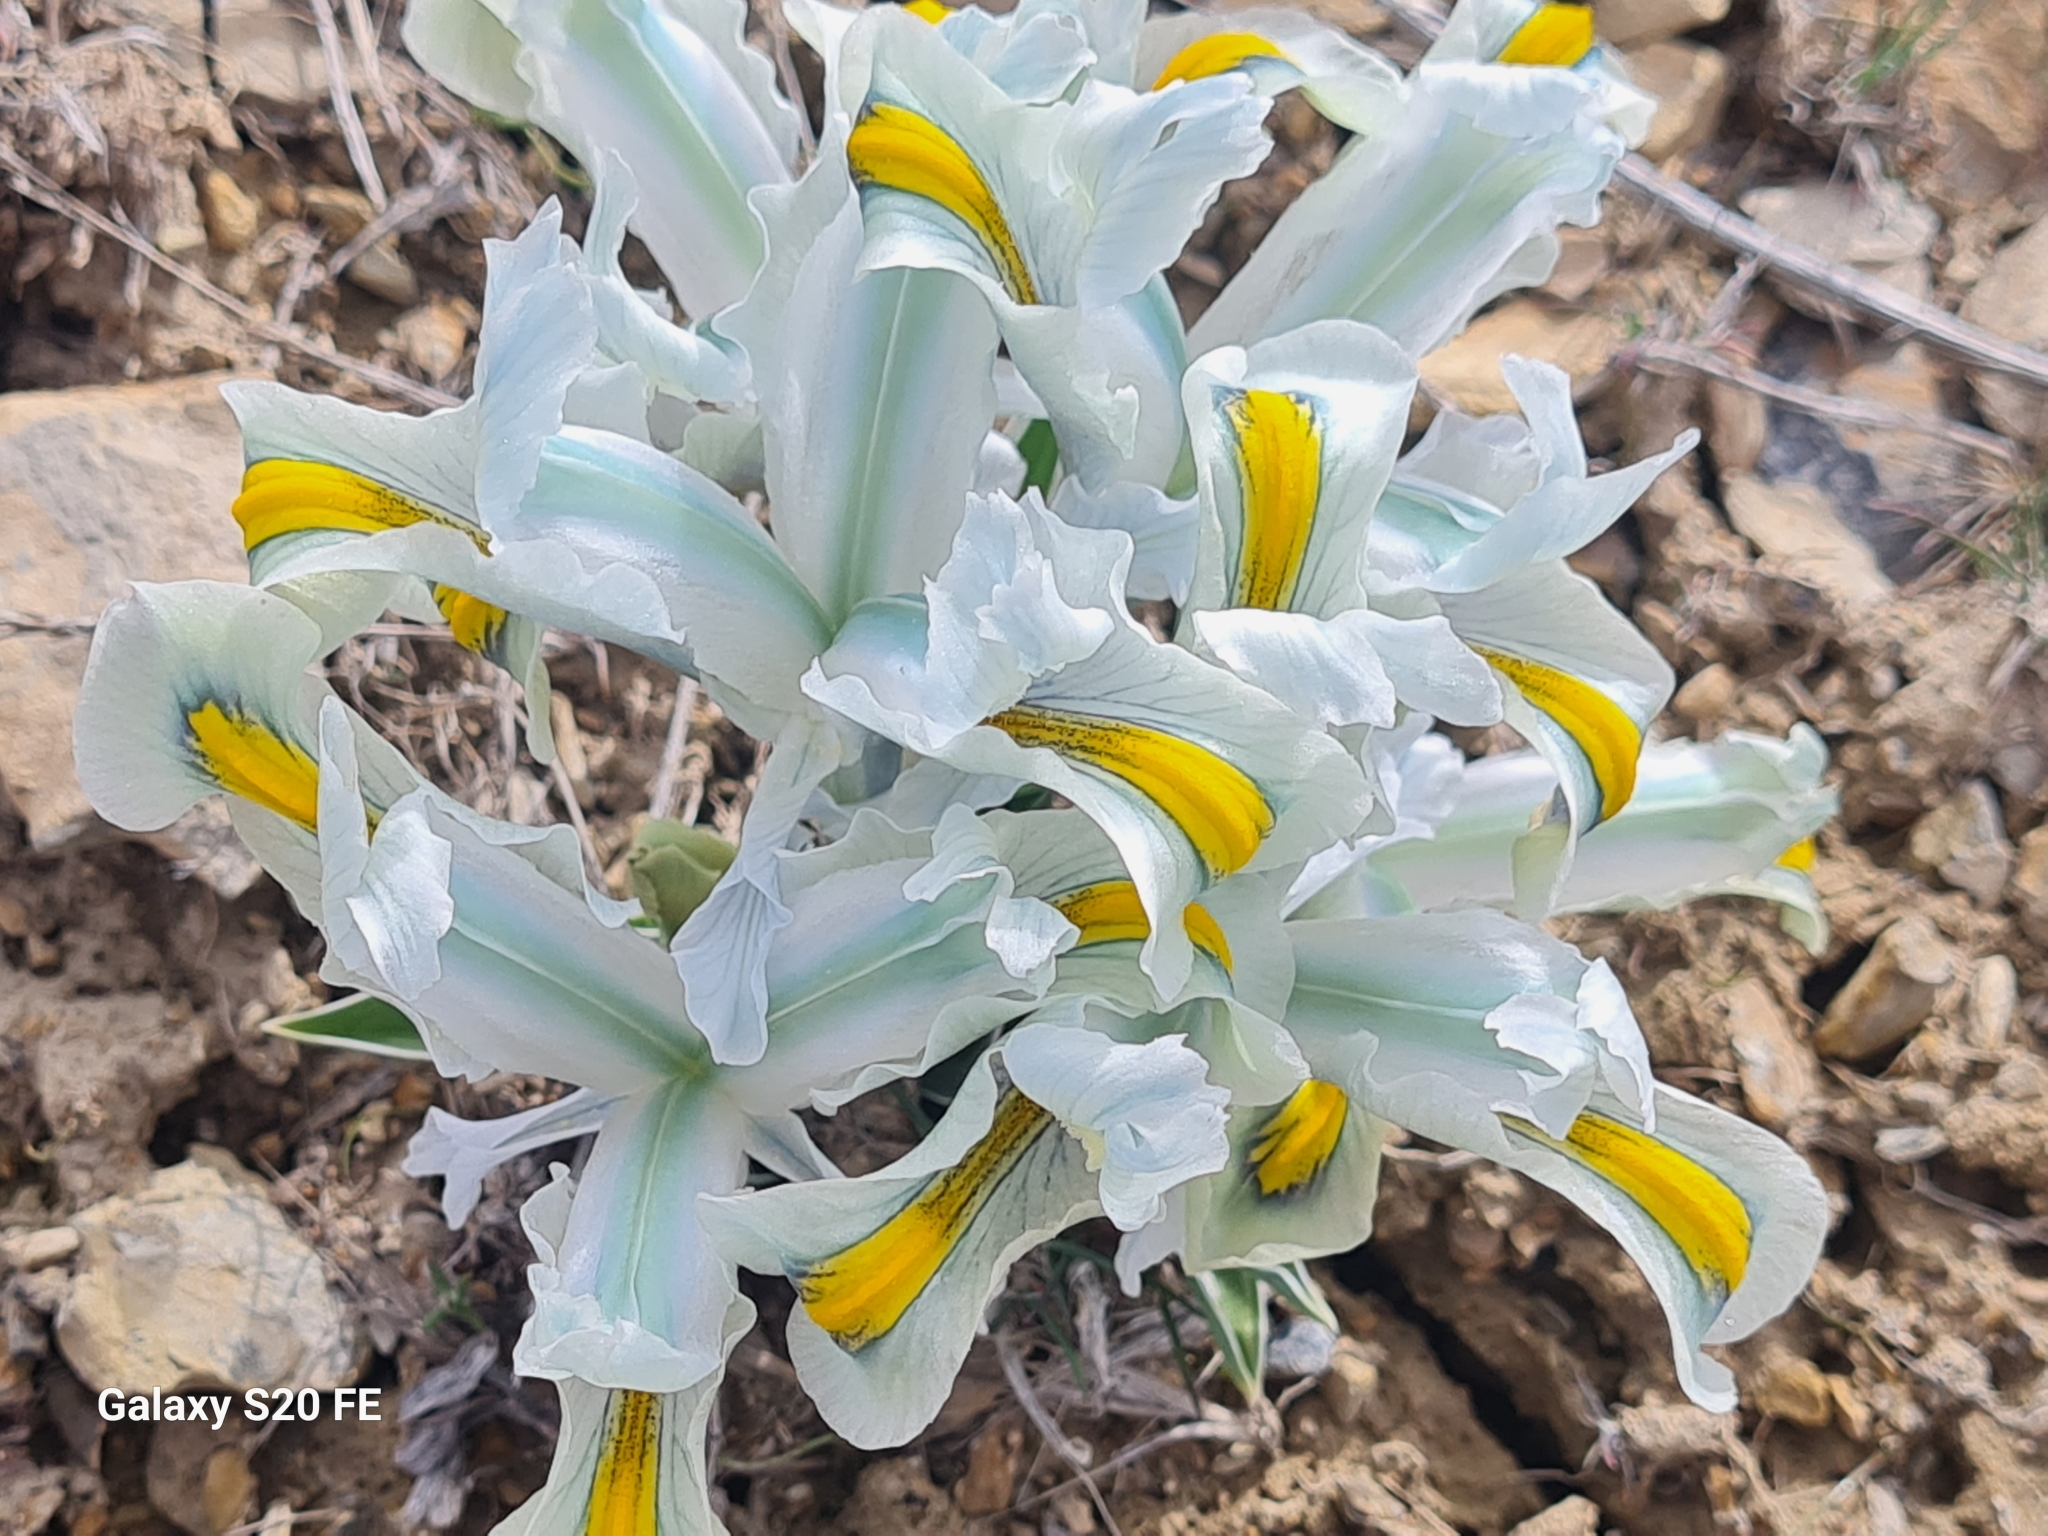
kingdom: Plantae
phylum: Tracheophyta
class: Liliopsida
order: Asparagales
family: Iridaceae
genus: Iris
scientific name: Iris hymenospatha
